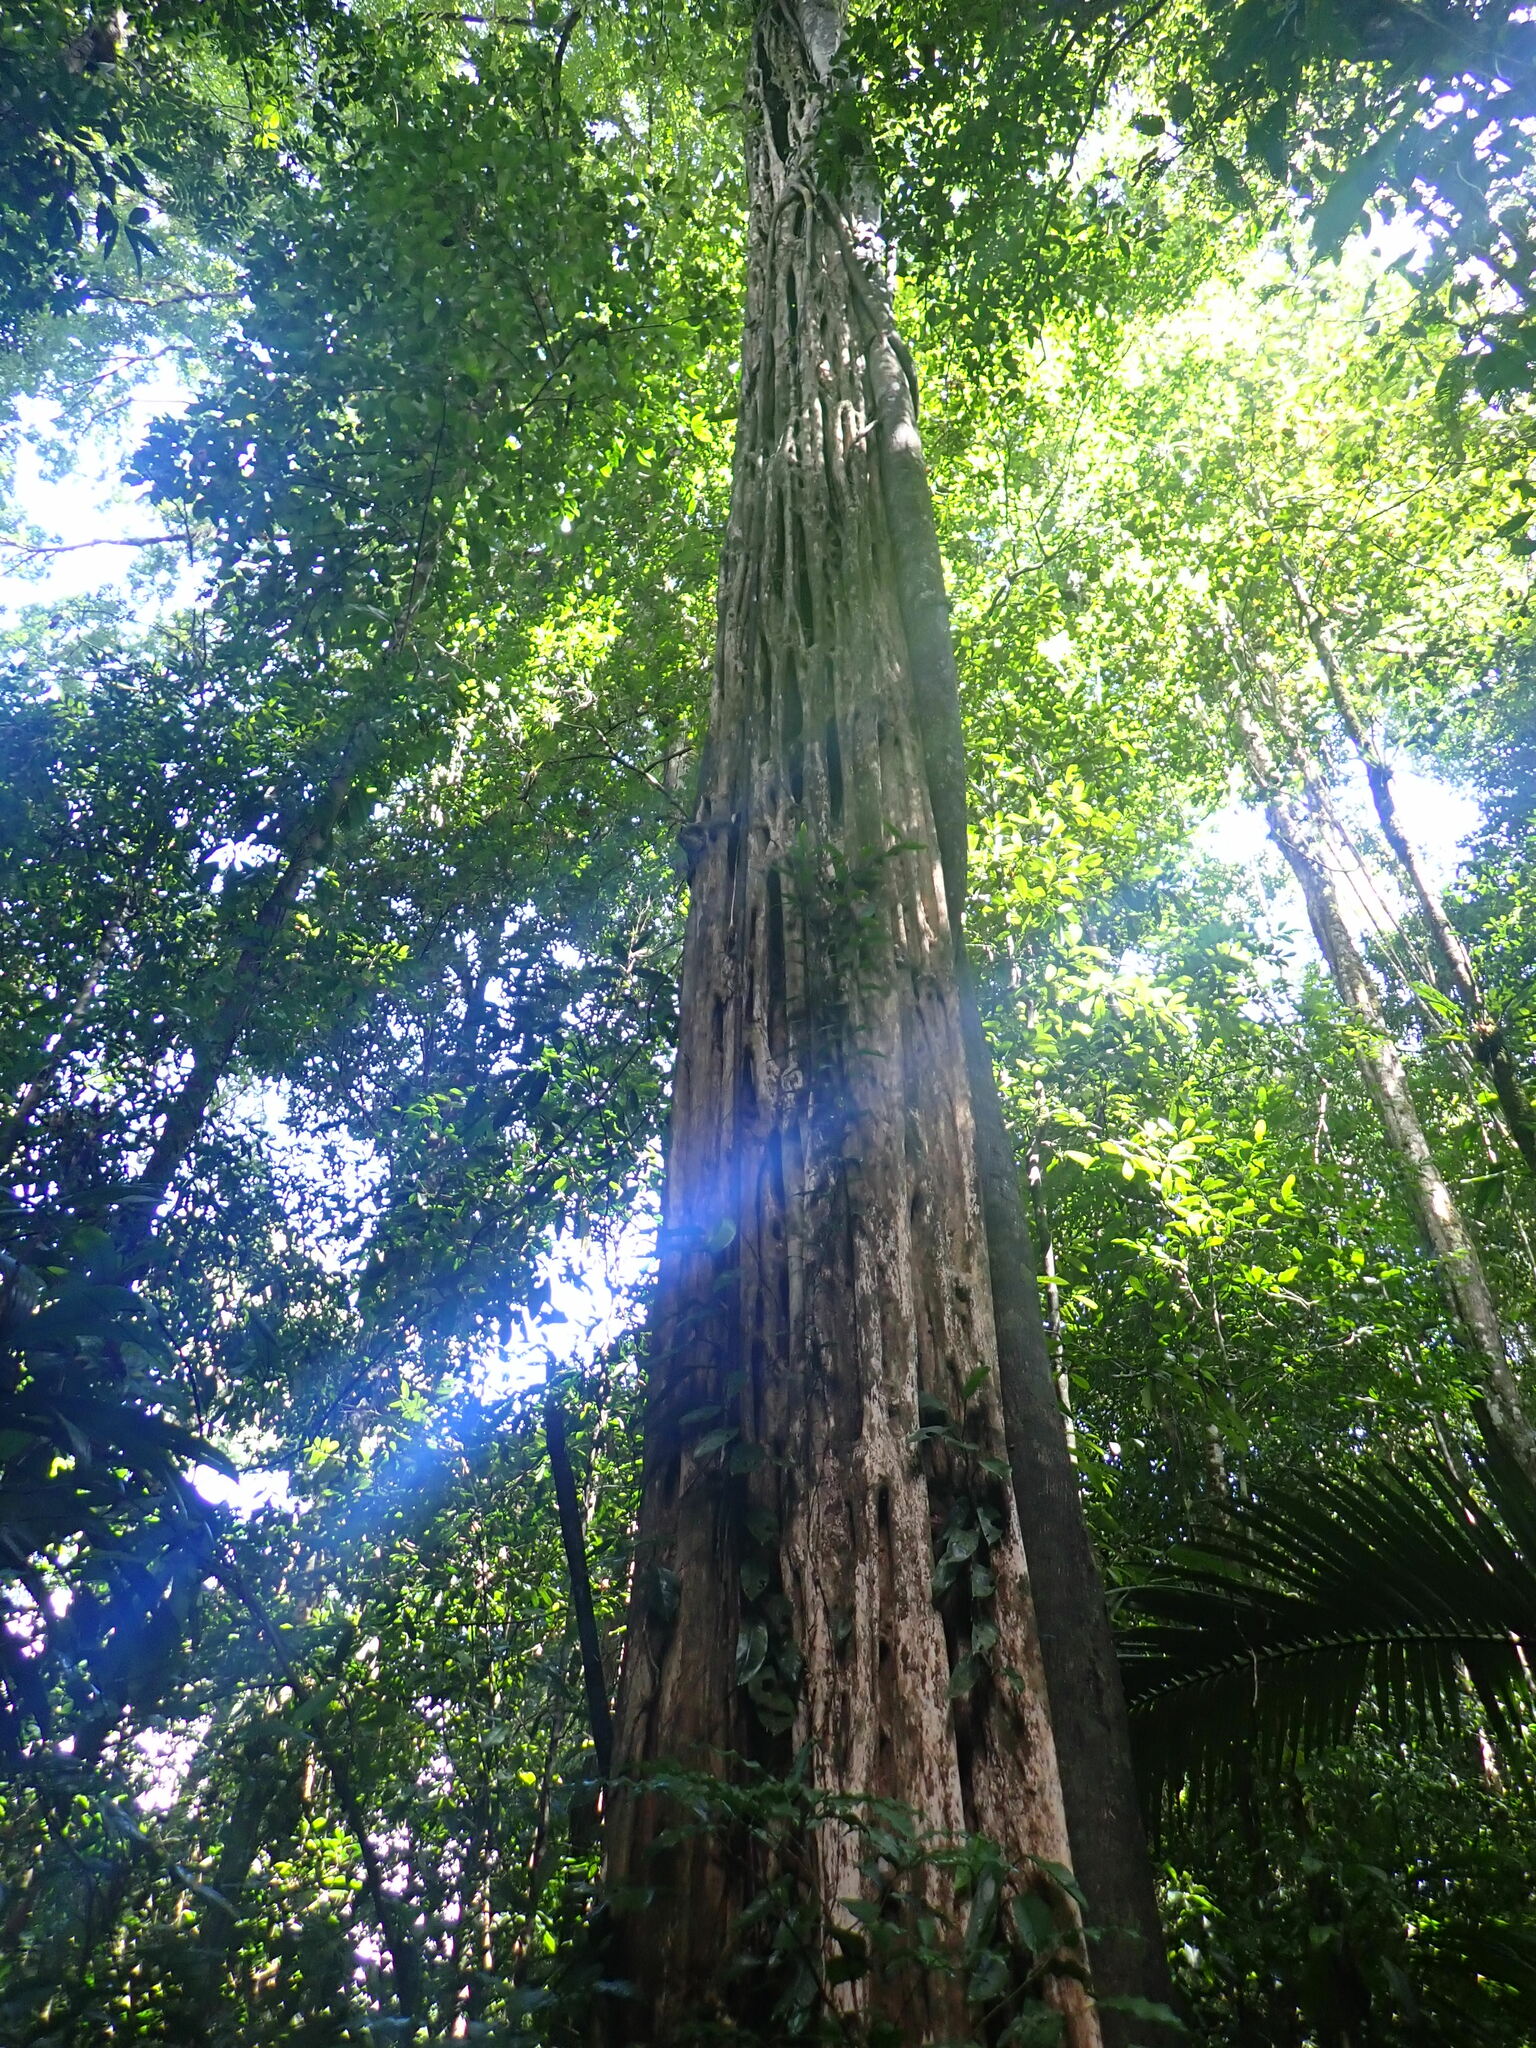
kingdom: Plantae
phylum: Tracheophyta
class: Magnoliopsida
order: Gentianales
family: Rubiaceae
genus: Chimarrhis
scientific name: Chimarrhis turbinata
